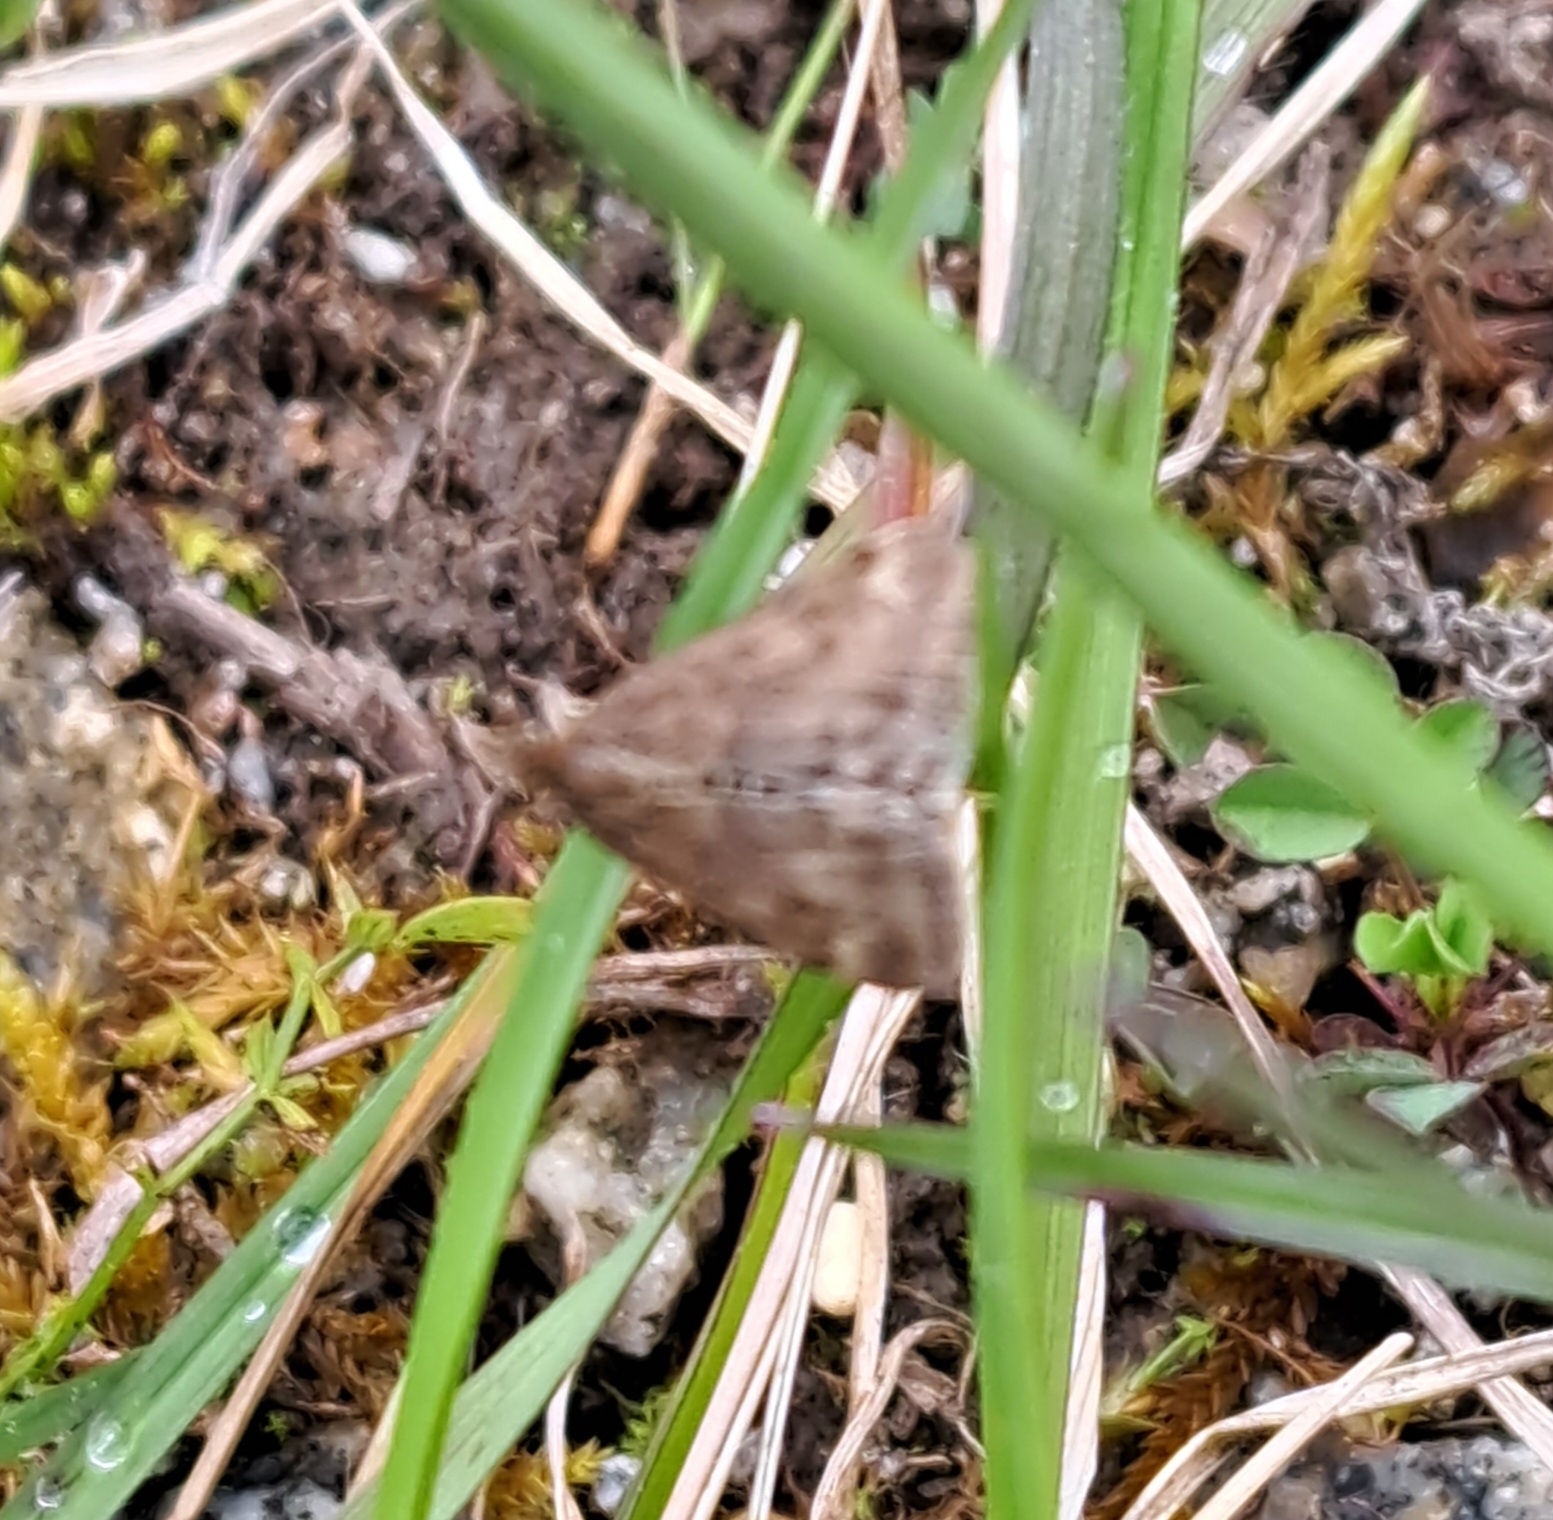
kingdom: Animalia
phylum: Arthropoda
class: Insecta
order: Lepidoptera
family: Crambidae
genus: Pyrausta
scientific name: Pyrausta despicata
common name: Straw-barred pearl
